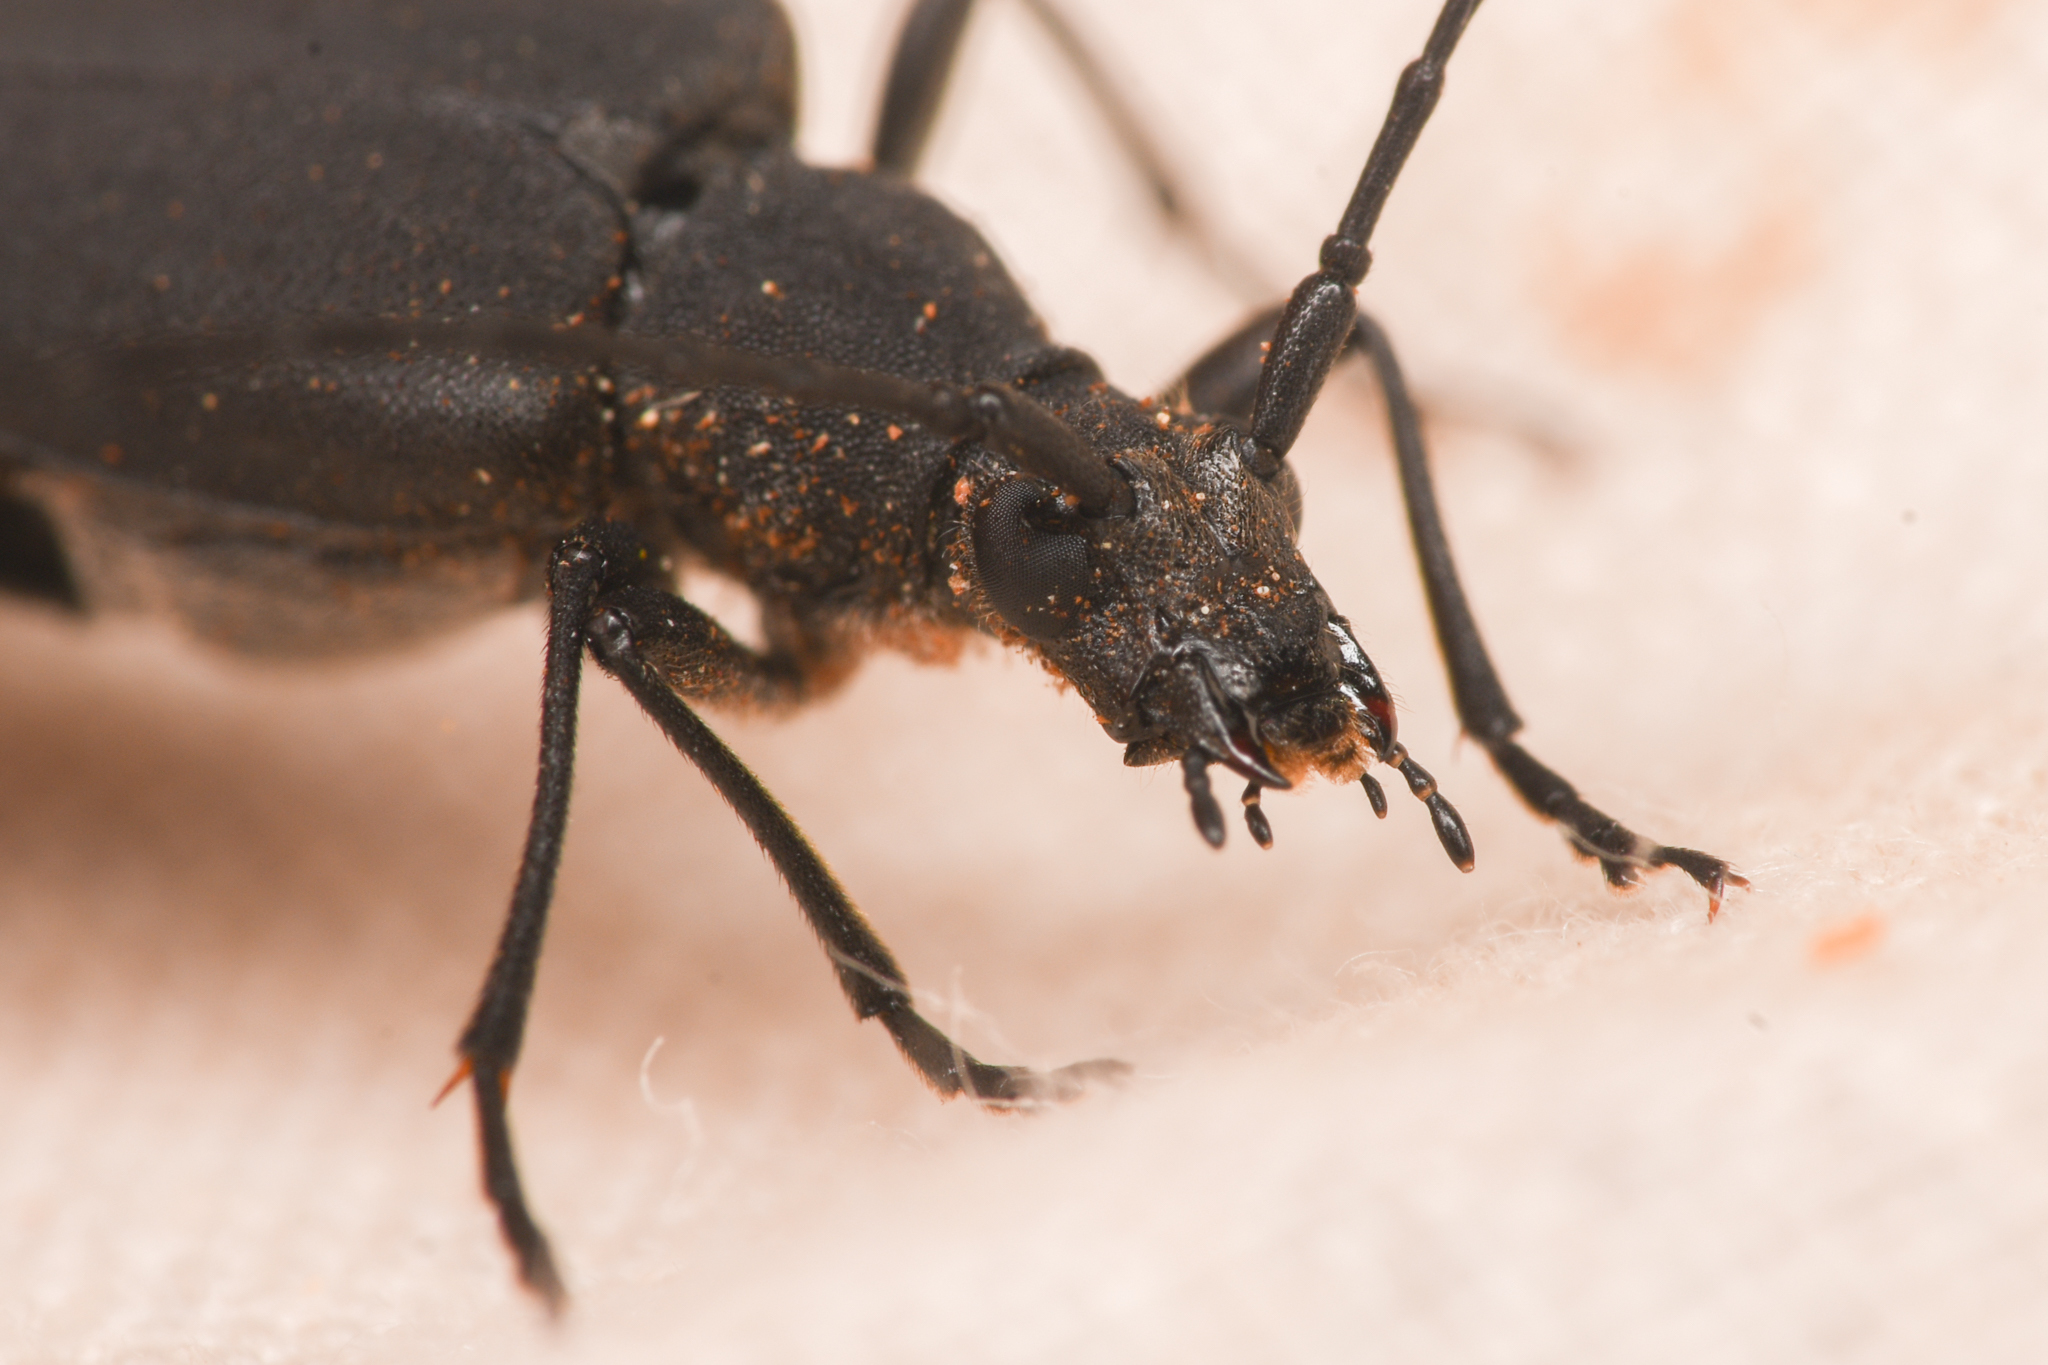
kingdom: Animalia
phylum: Arthropoda
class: Insecta
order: Coleoptera
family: Cerambycidae
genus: Trachysida
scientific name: Trachysida aspera
